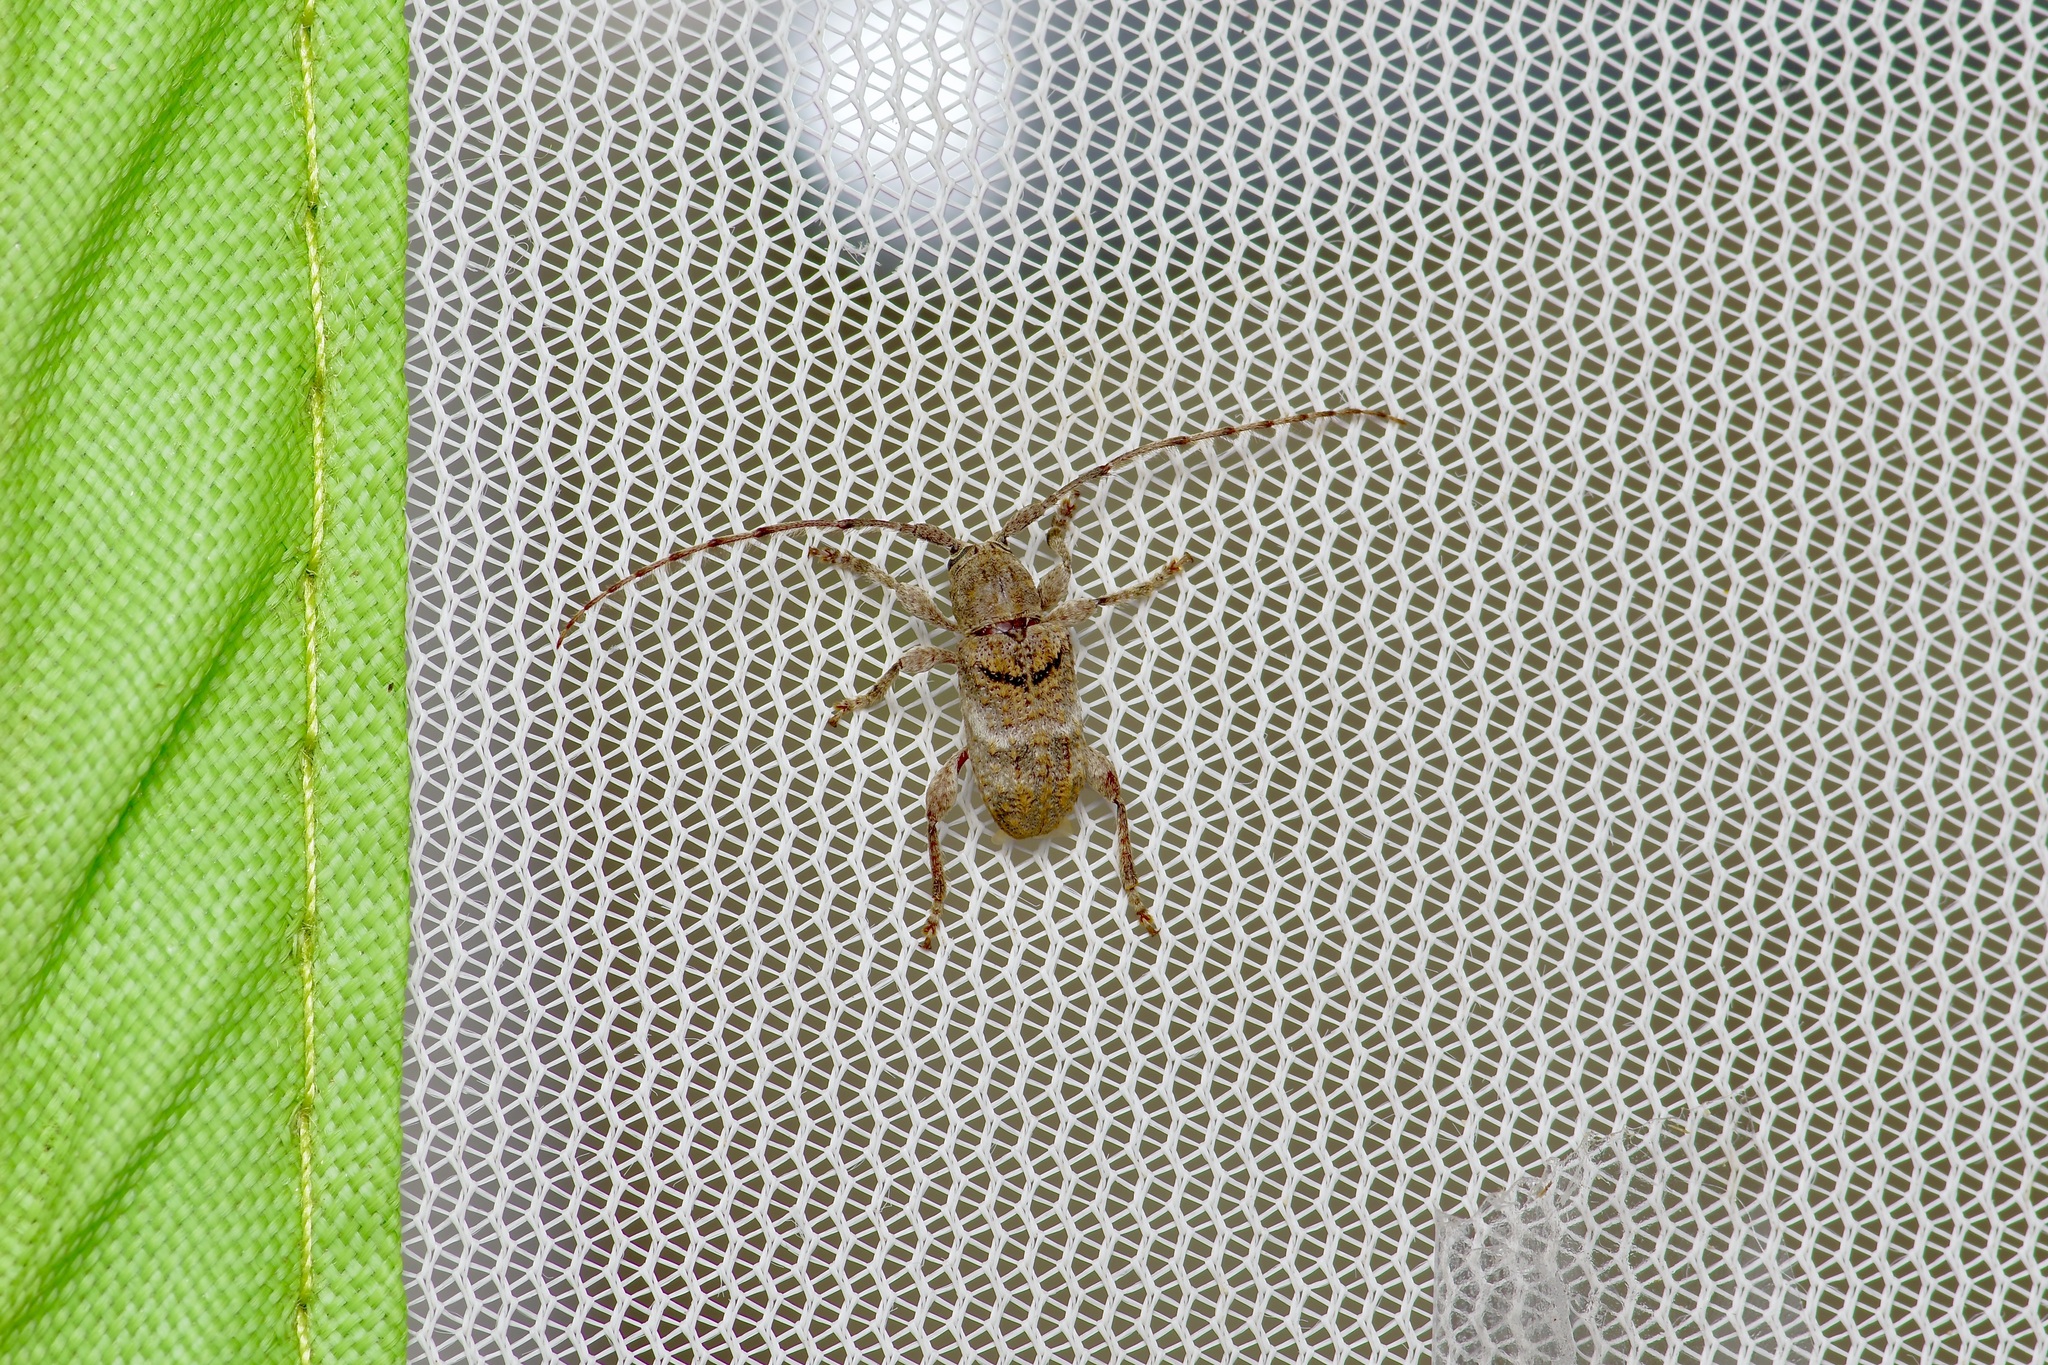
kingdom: Animalia
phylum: Arthropoda
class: Insecta
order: Coleoptera
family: Cerambycidae
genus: Ecyrus
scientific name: Ecyrus dasycerus
